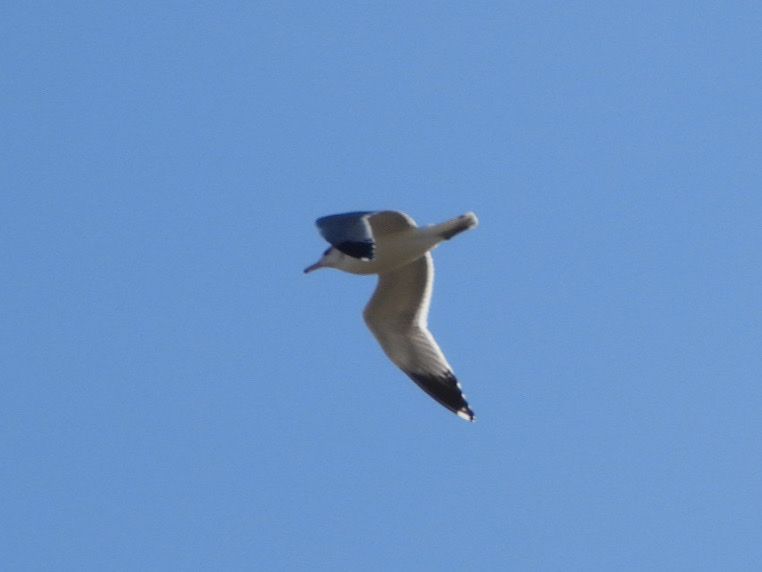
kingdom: Animalia
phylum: Chordata
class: Aves
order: Charadriiformes
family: Laridae
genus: Larus
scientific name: Larus californicus
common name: California gull
